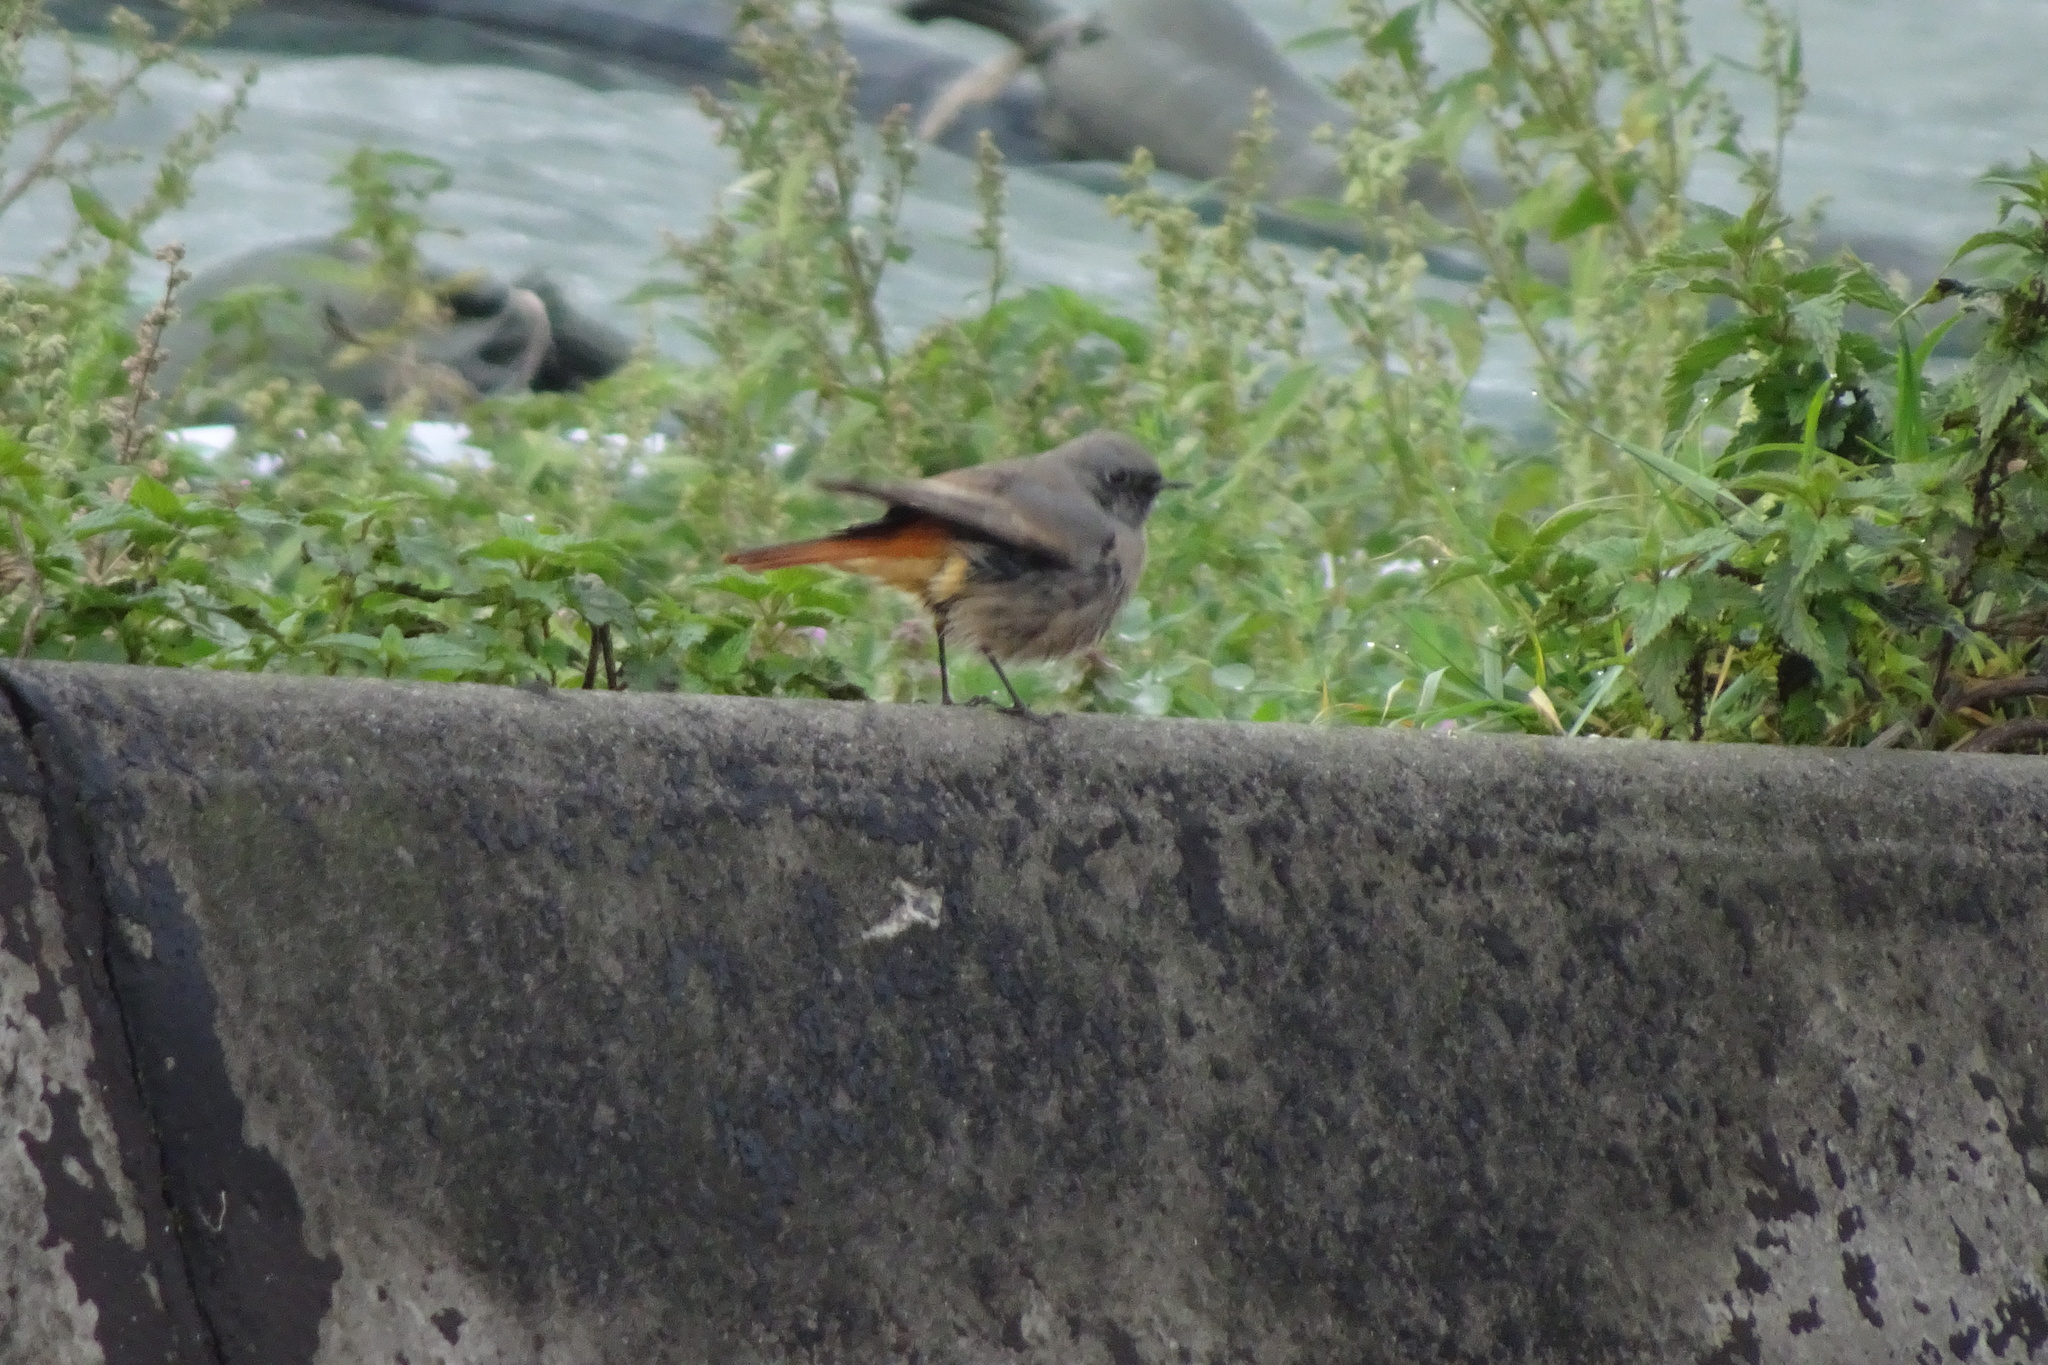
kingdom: Animalia
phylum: Chordata
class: Aves
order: Passeriformes
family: Muscicapidae
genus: Phoenicurus
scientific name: Phoenicurus ochruros
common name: Black redstart
